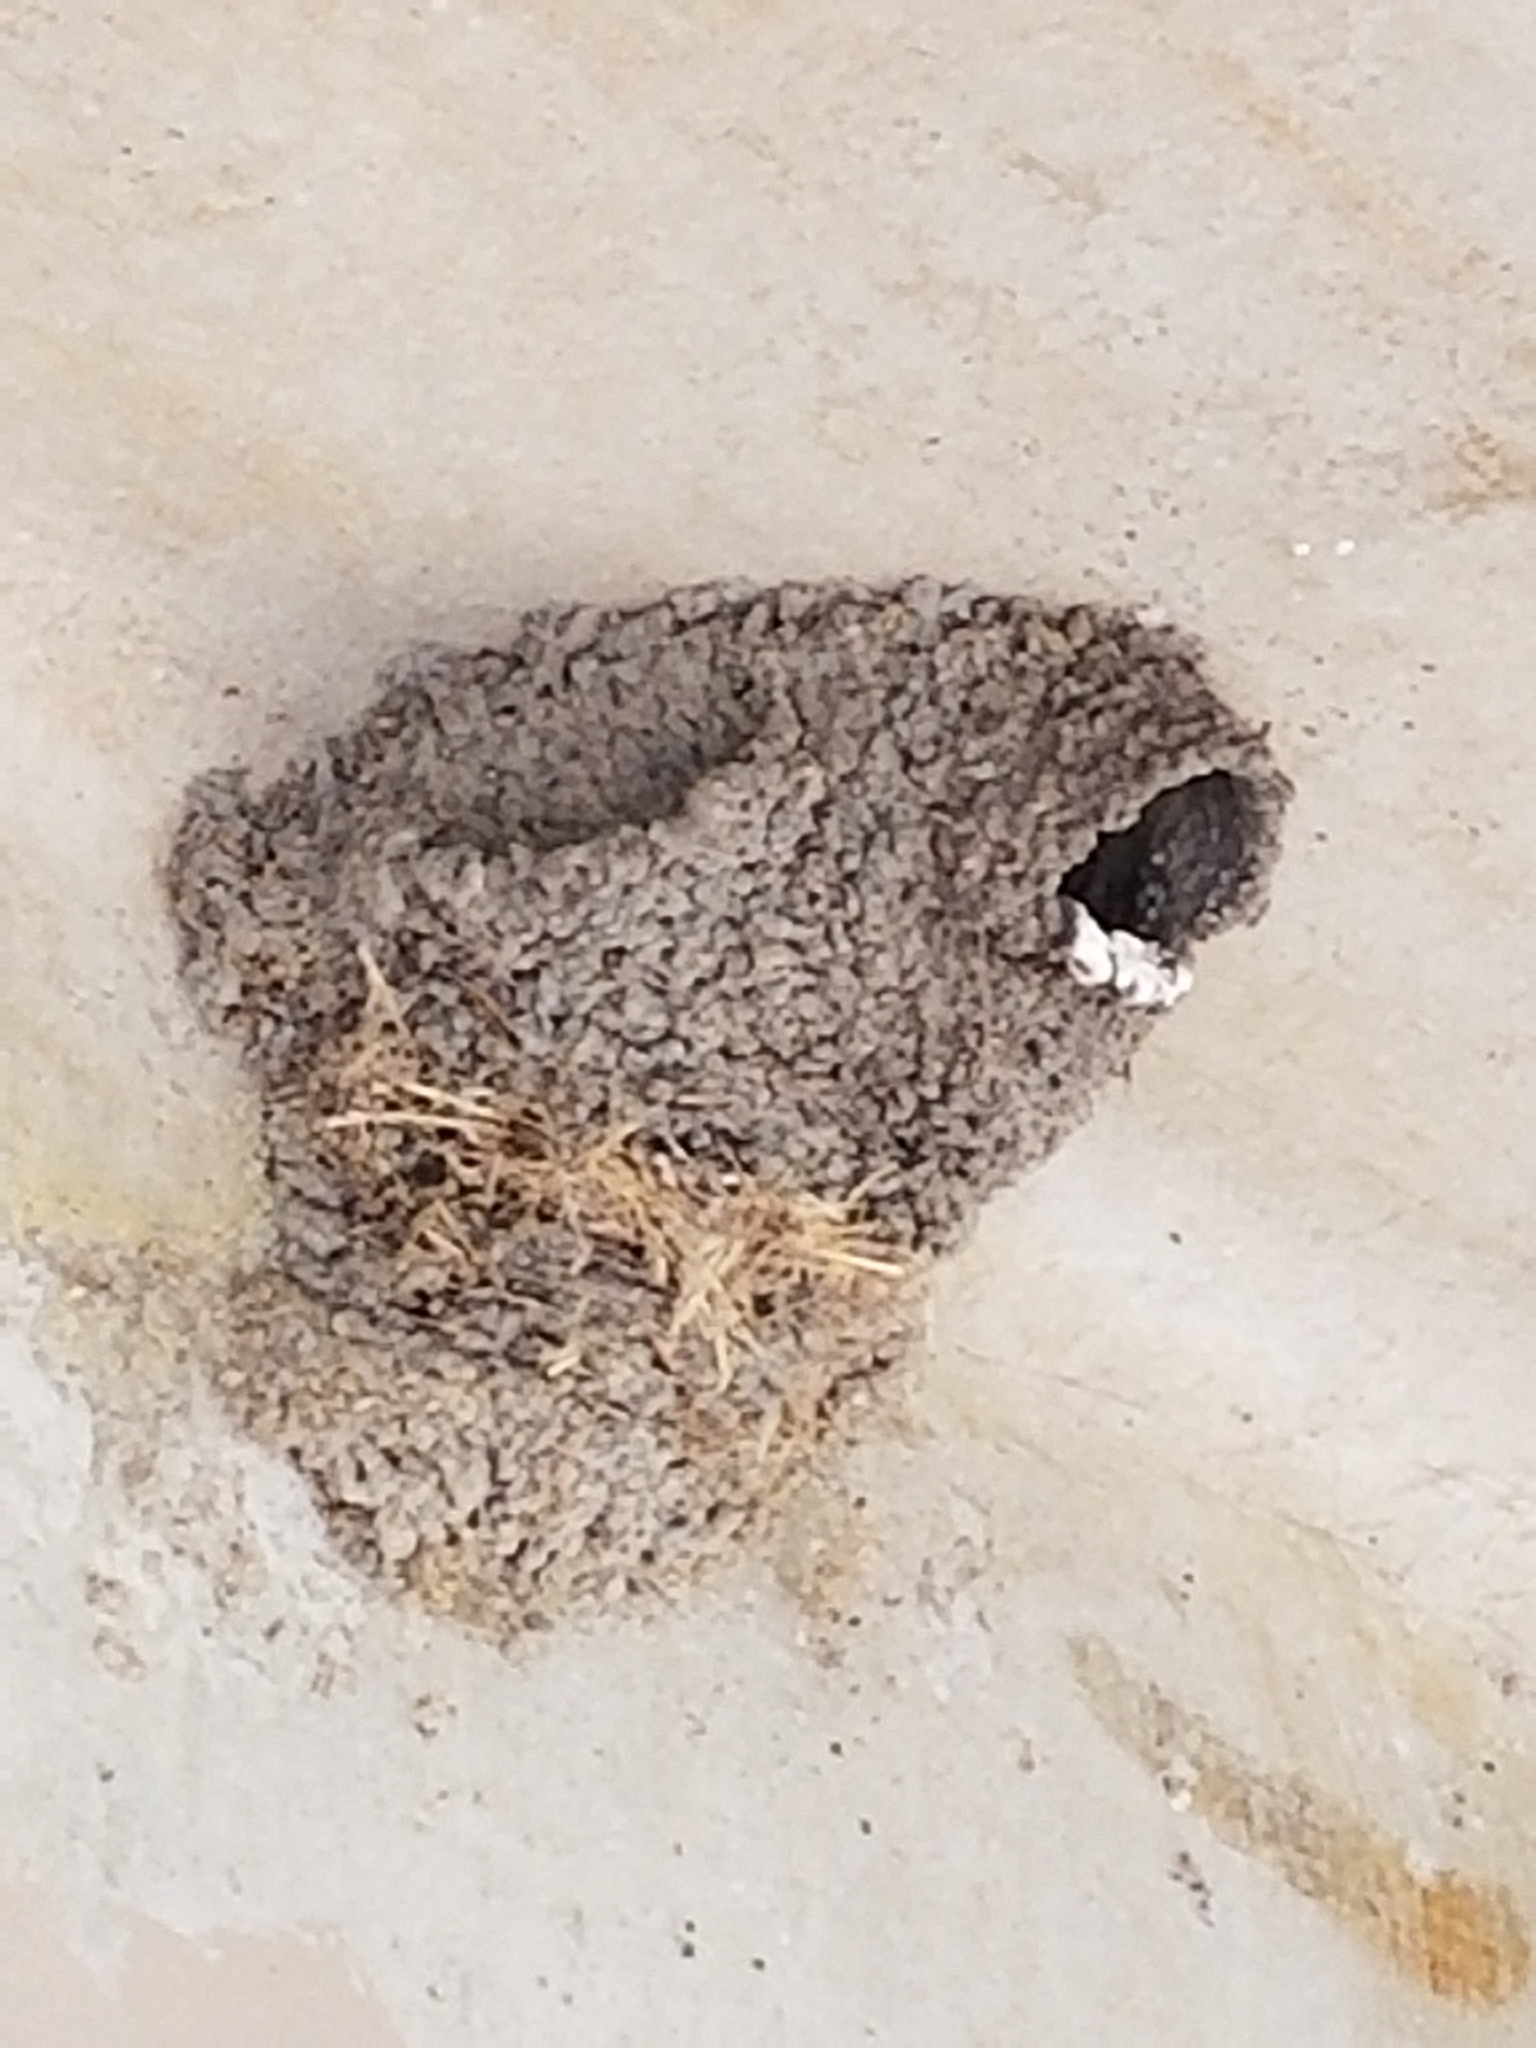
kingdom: Animalia
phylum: Chordata
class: Aves
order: Passeriformes
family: Hirundinidae
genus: Petrochelidon
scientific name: Petrochelidon pyrrhonota
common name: American cliff swallow
